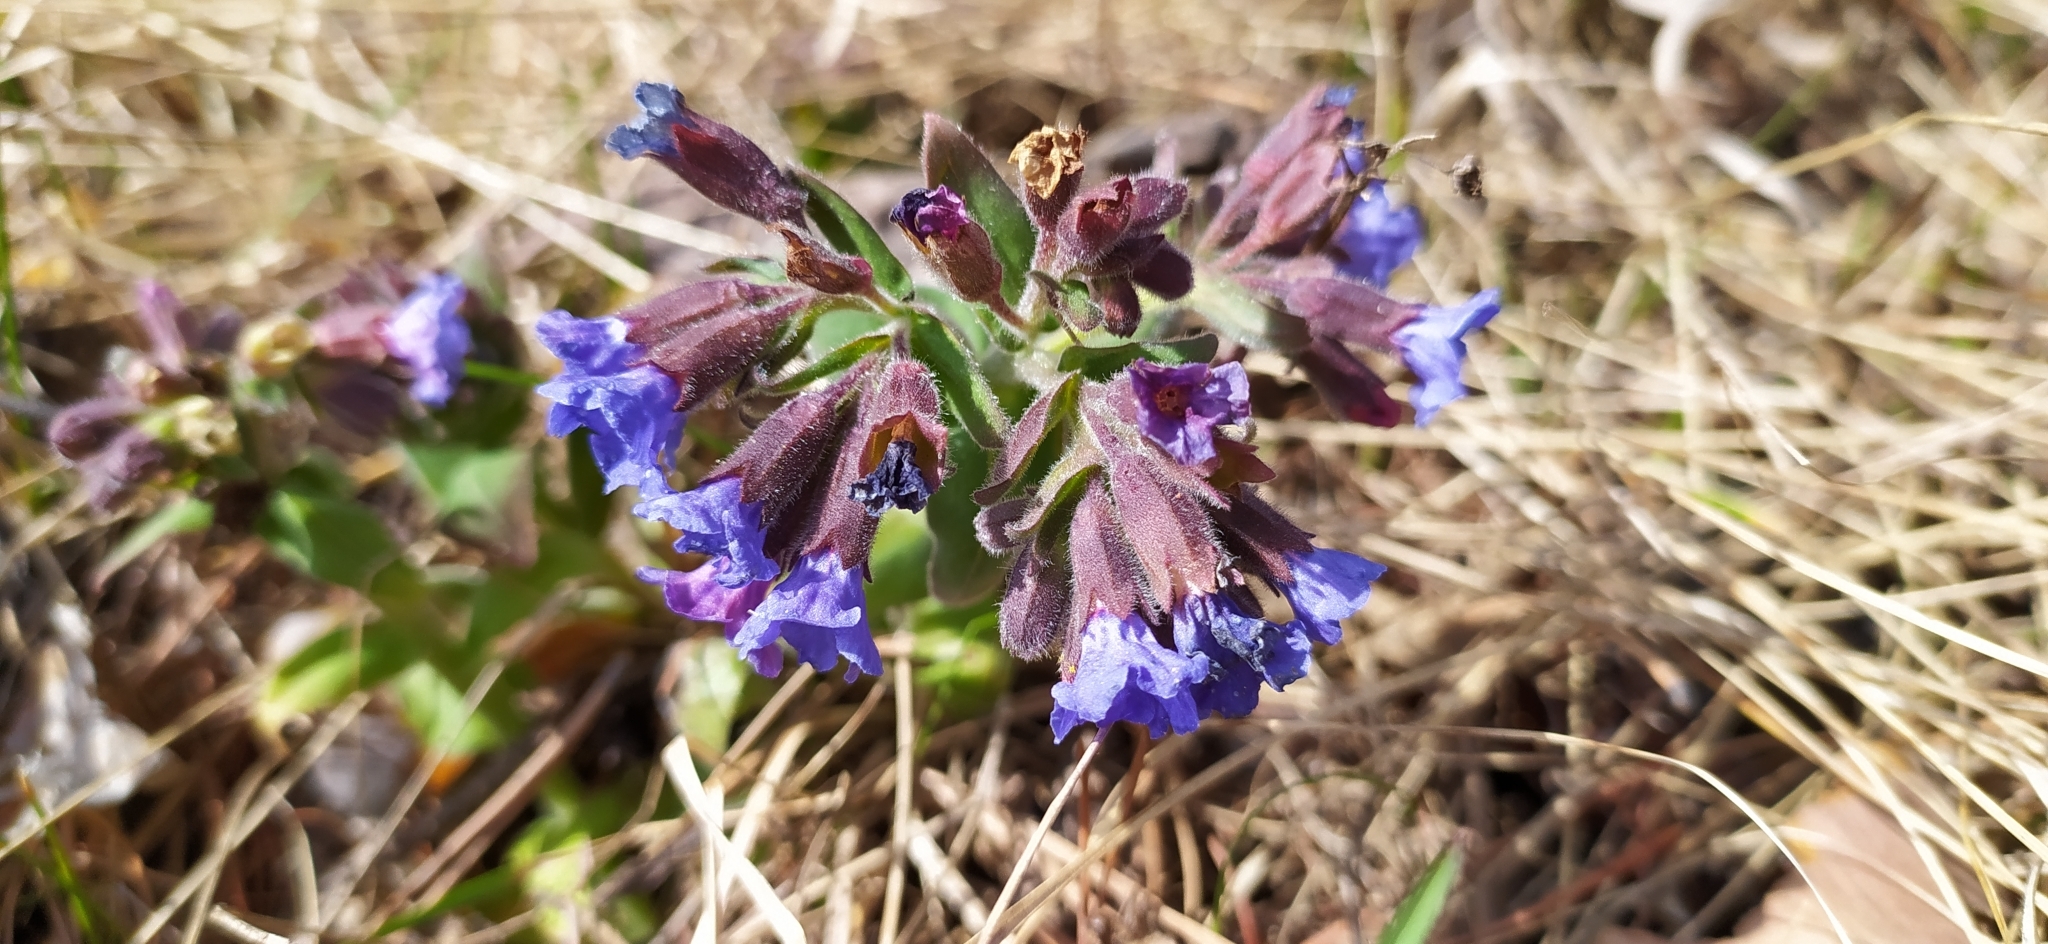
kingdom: Plantae
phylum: Tracheophyta
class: Magnoliopsida
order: Boraginales
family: Boraginaceae
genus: Pulmonaria
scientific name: Pulmonaria mollis
